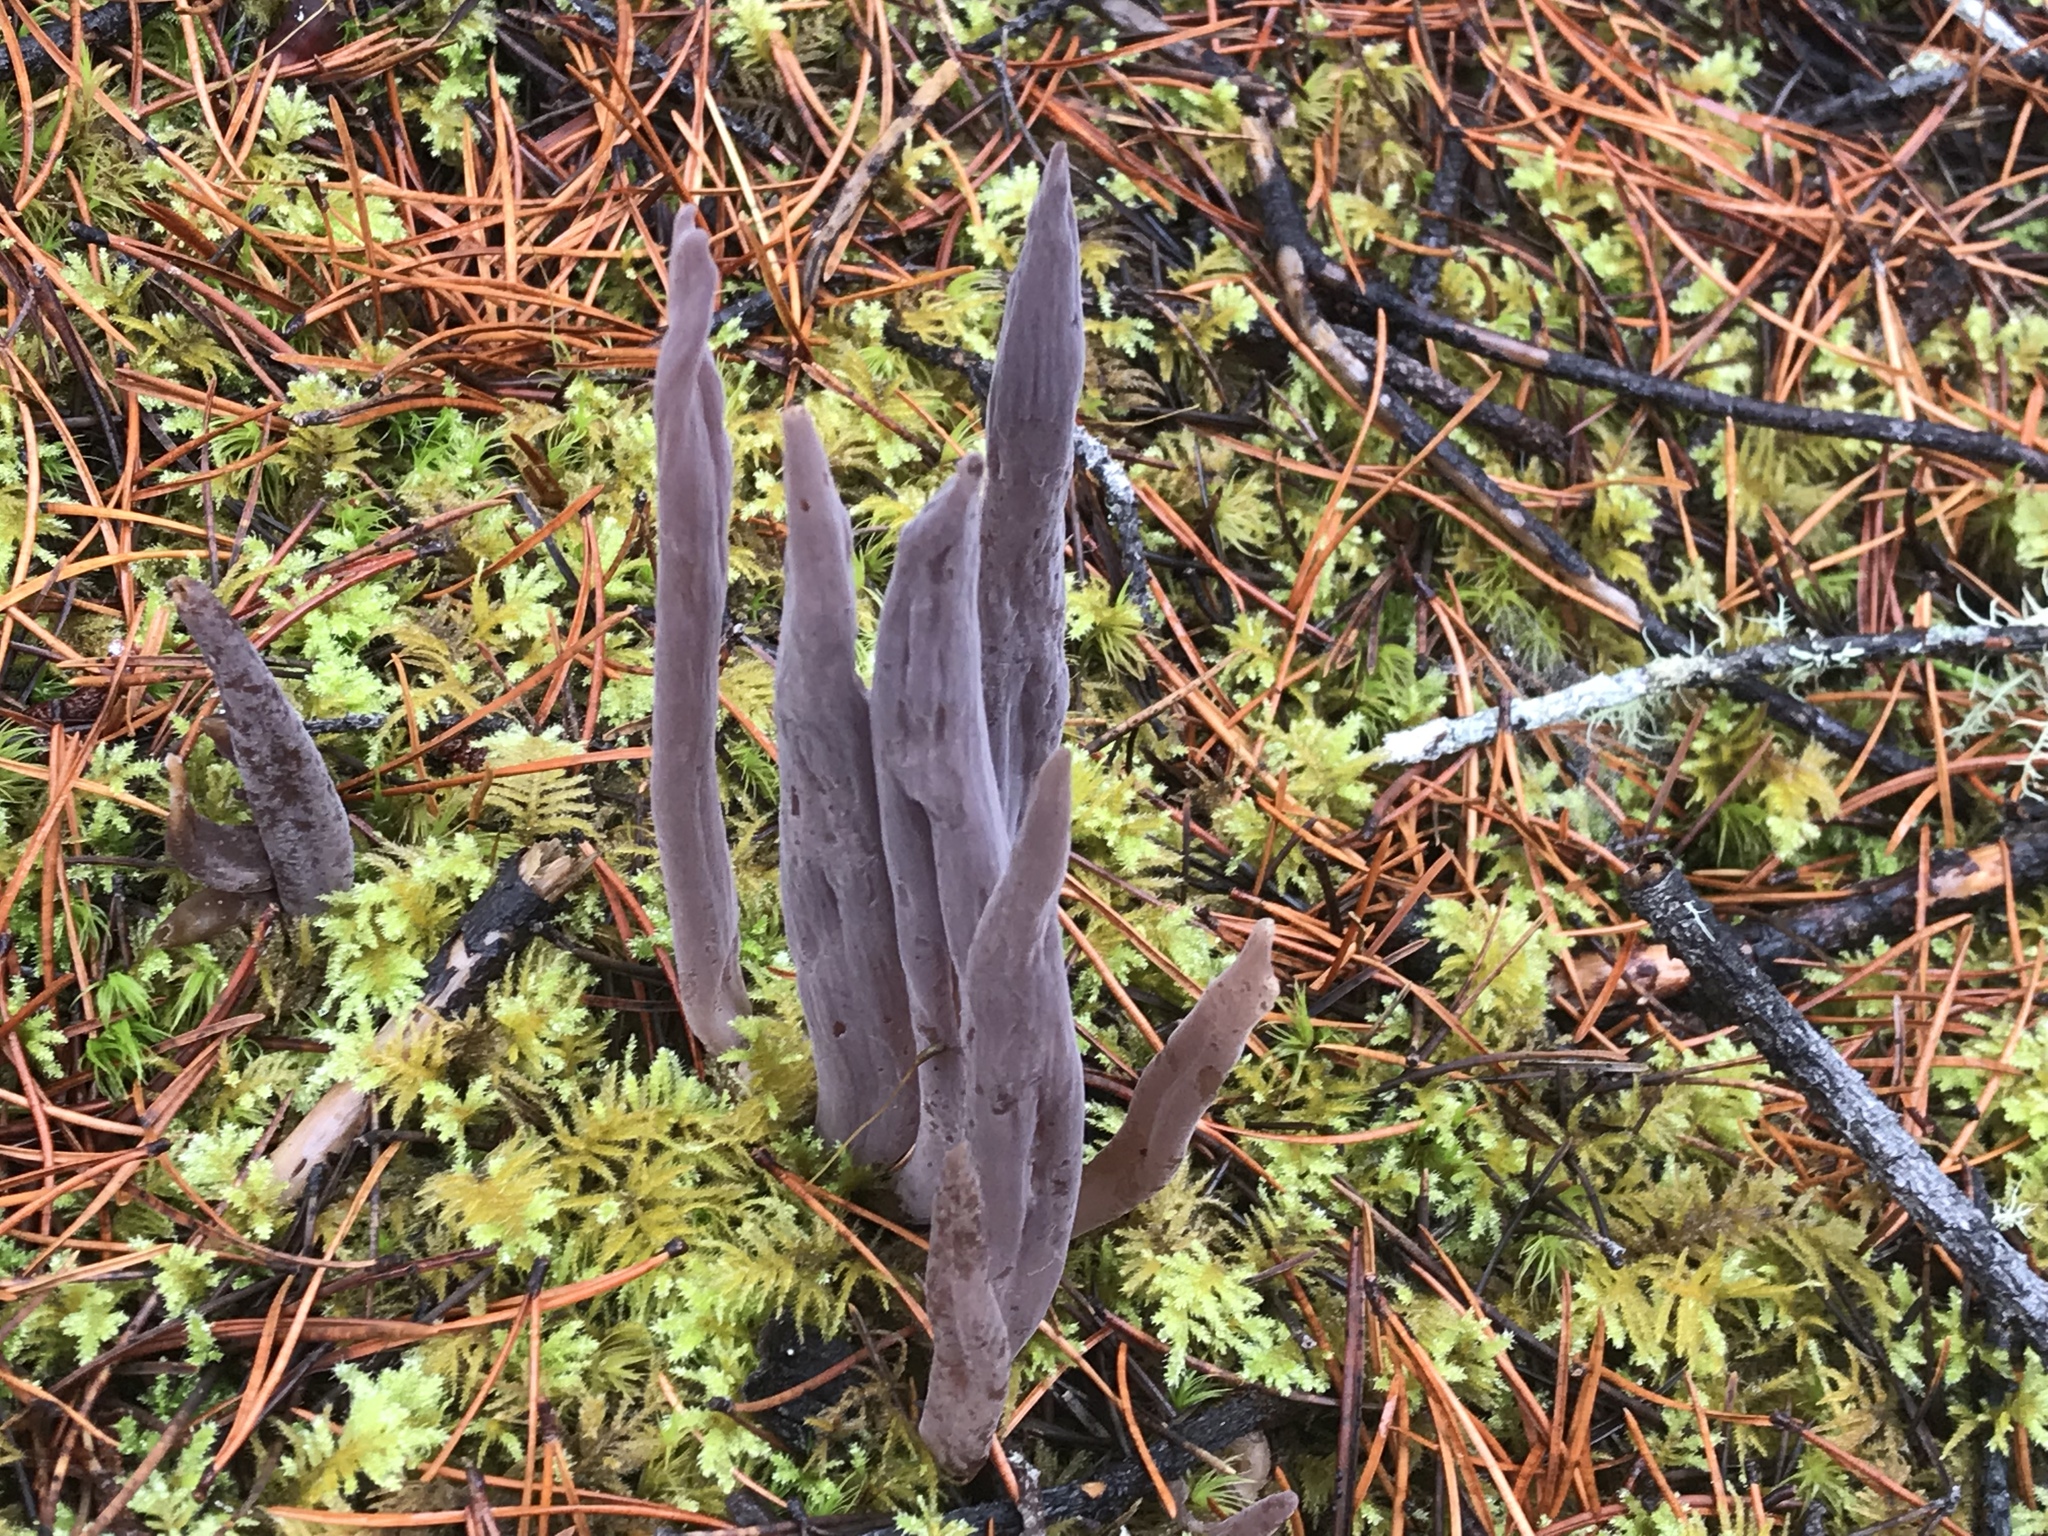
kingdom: Fungi
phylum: Basidiomycota
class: Agaricomycetes
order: Hymenochaetales
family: Rickenellaceae
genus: Alloclavaria
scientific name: Alloclavaria purpurea
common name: Purple spindles
